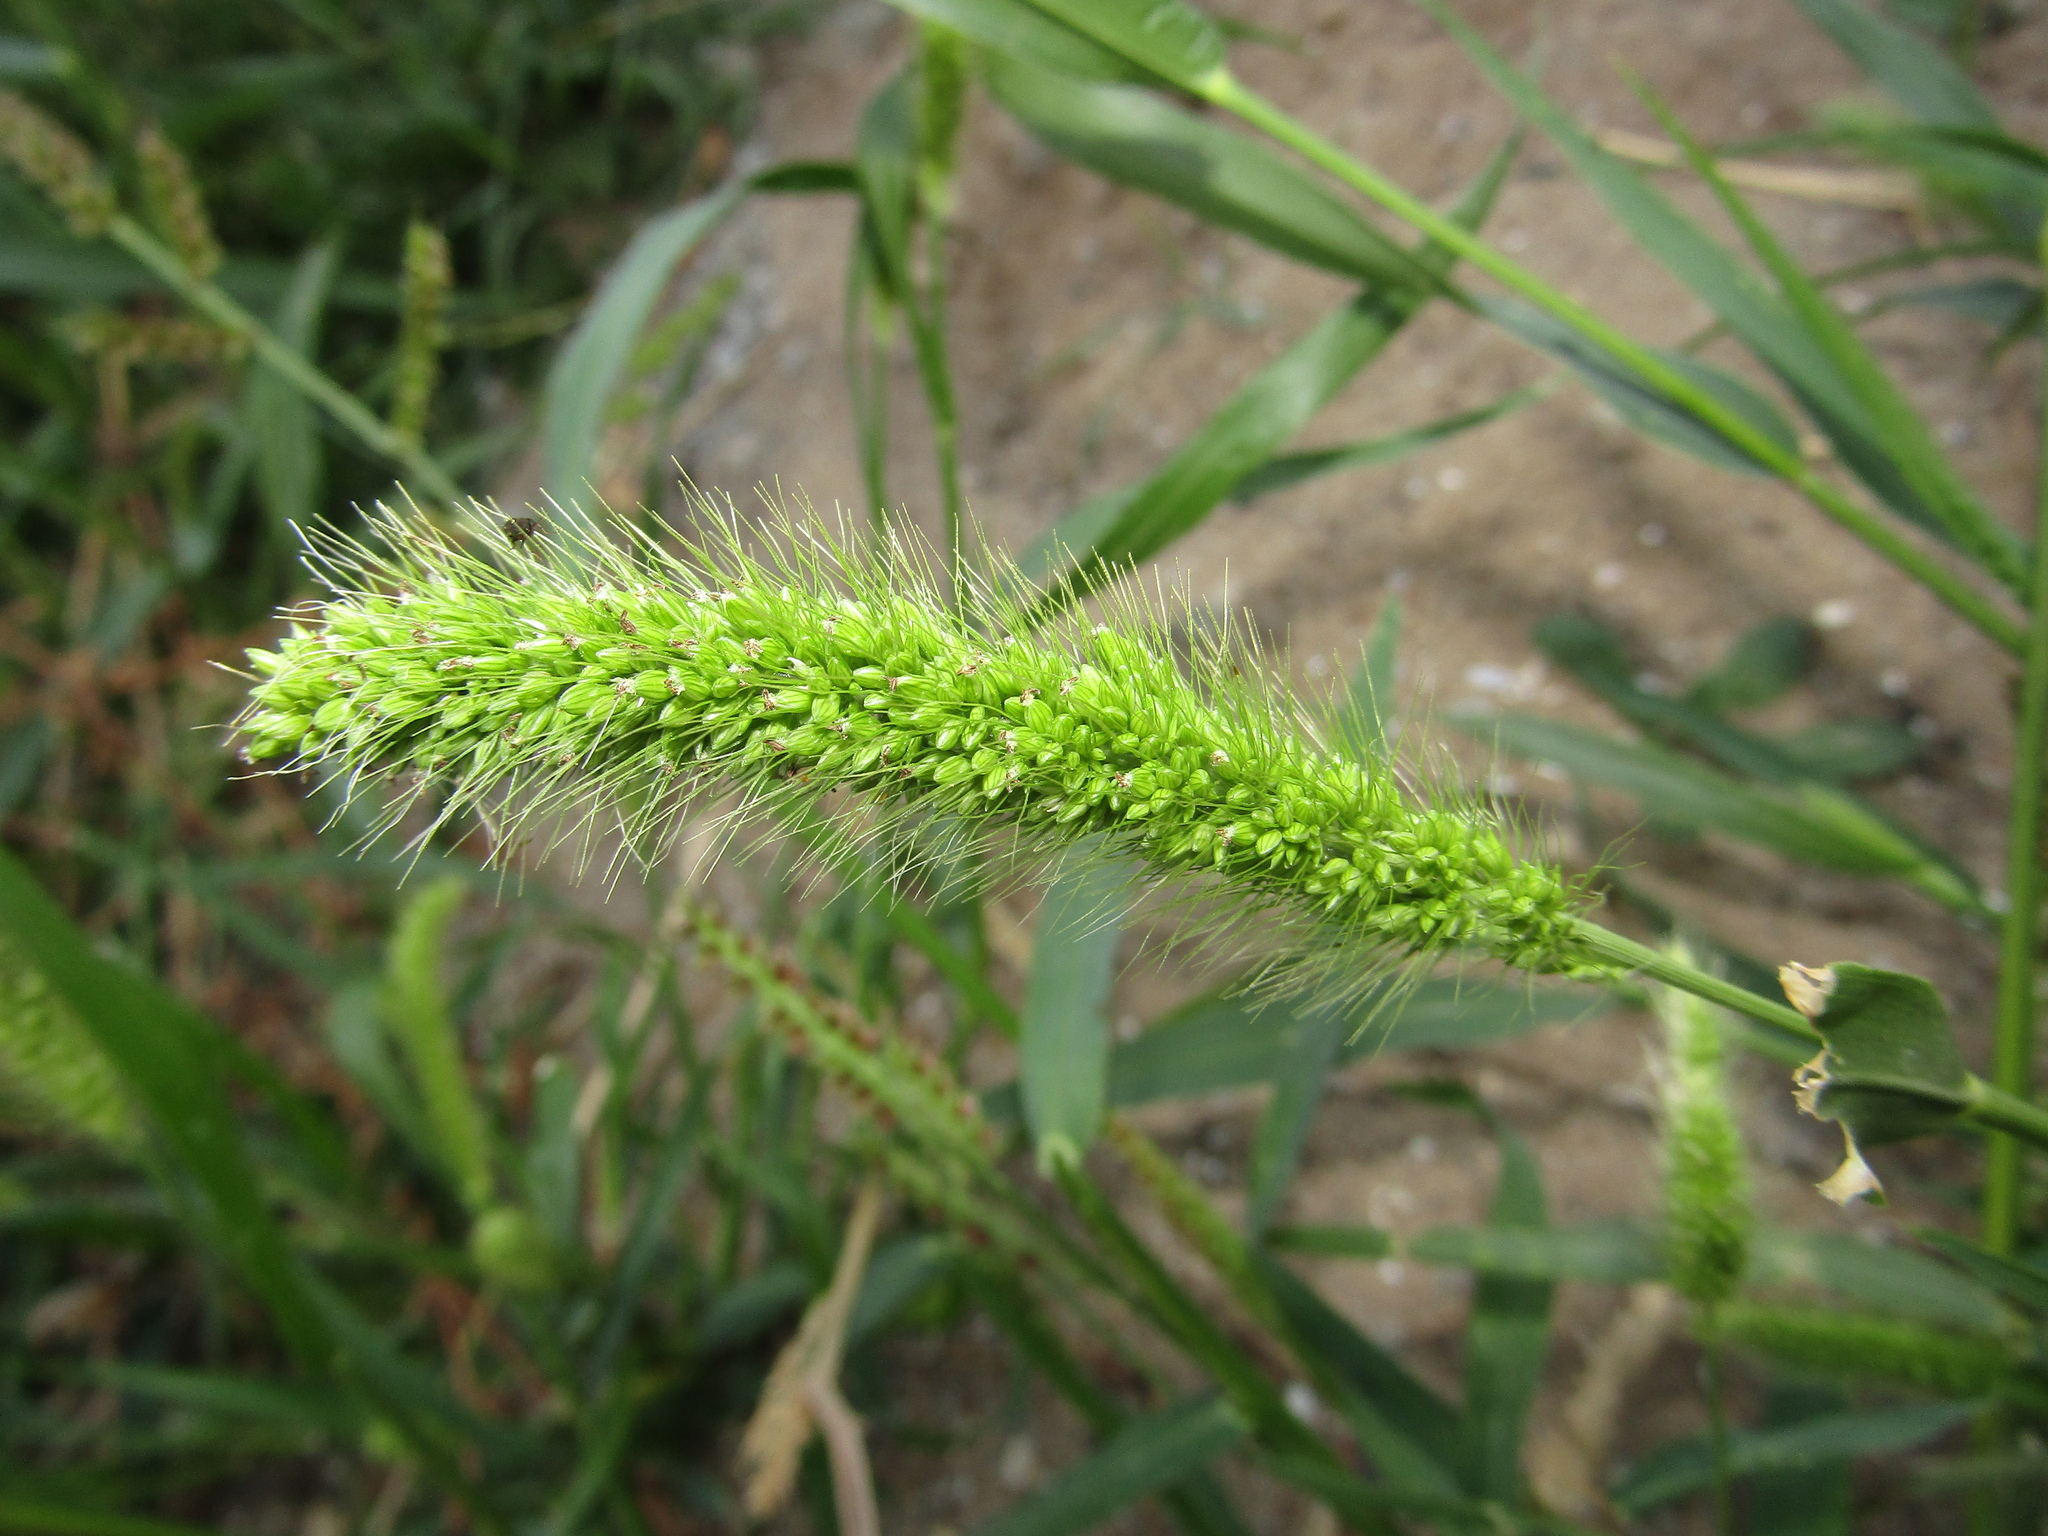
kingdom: Plantae
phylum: Tracheophyta
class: Liliopsida
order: Poales
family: Poaceae
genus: Setaria
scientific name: Setaria viridis
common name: Green bristlegrass
